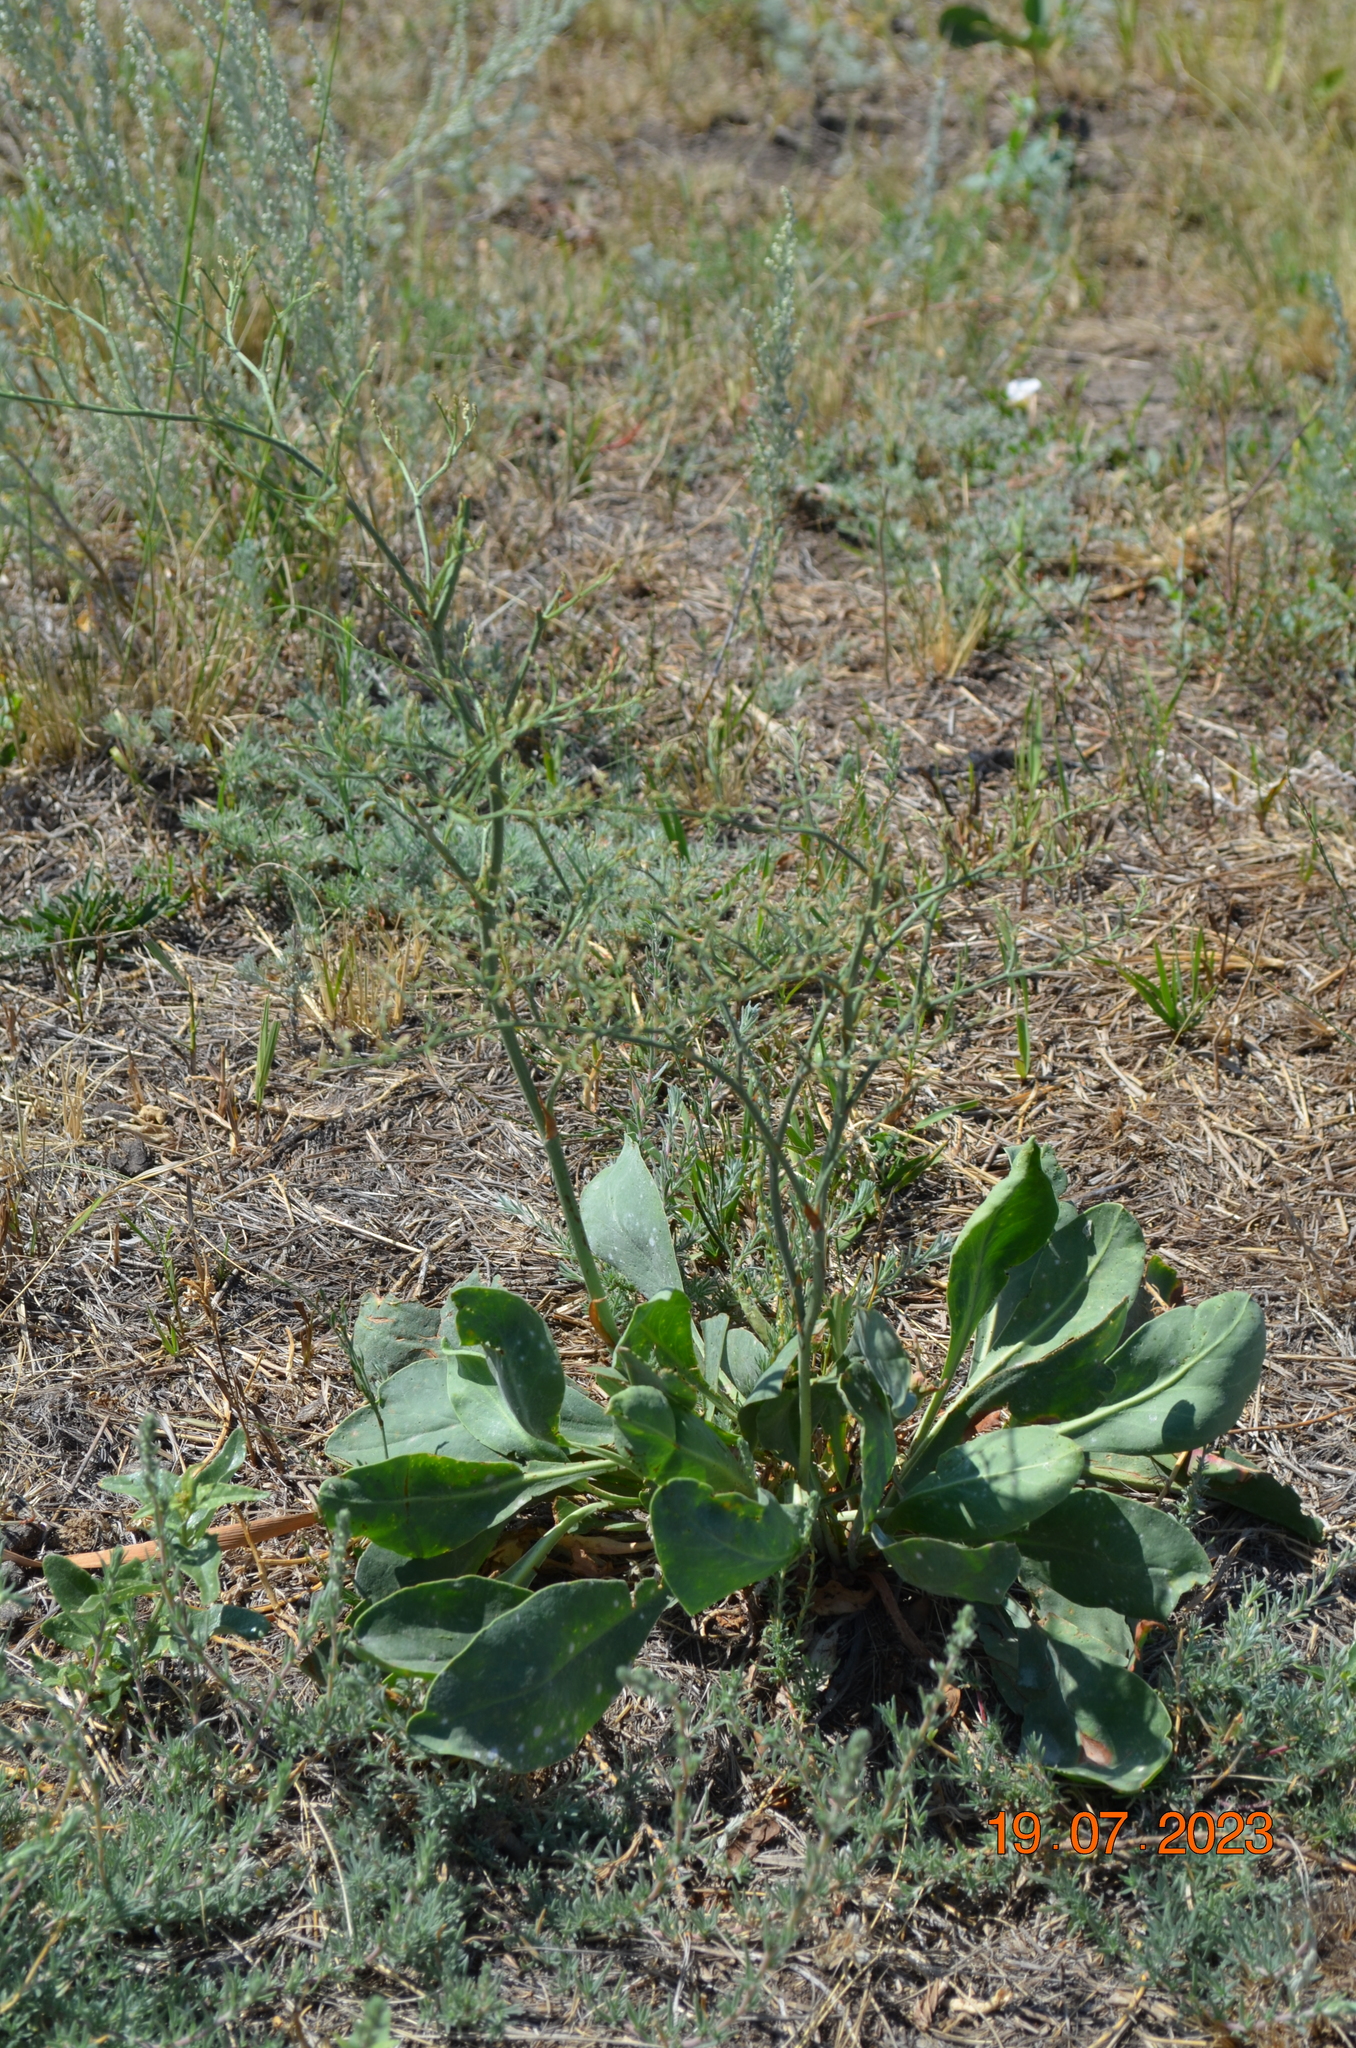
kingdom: Plantae
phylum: Tracheophyta
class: Magnoliopsida
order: Caryophyllales
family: Plumbaginaceae
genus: Limonium
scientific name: Limonium gmelini
